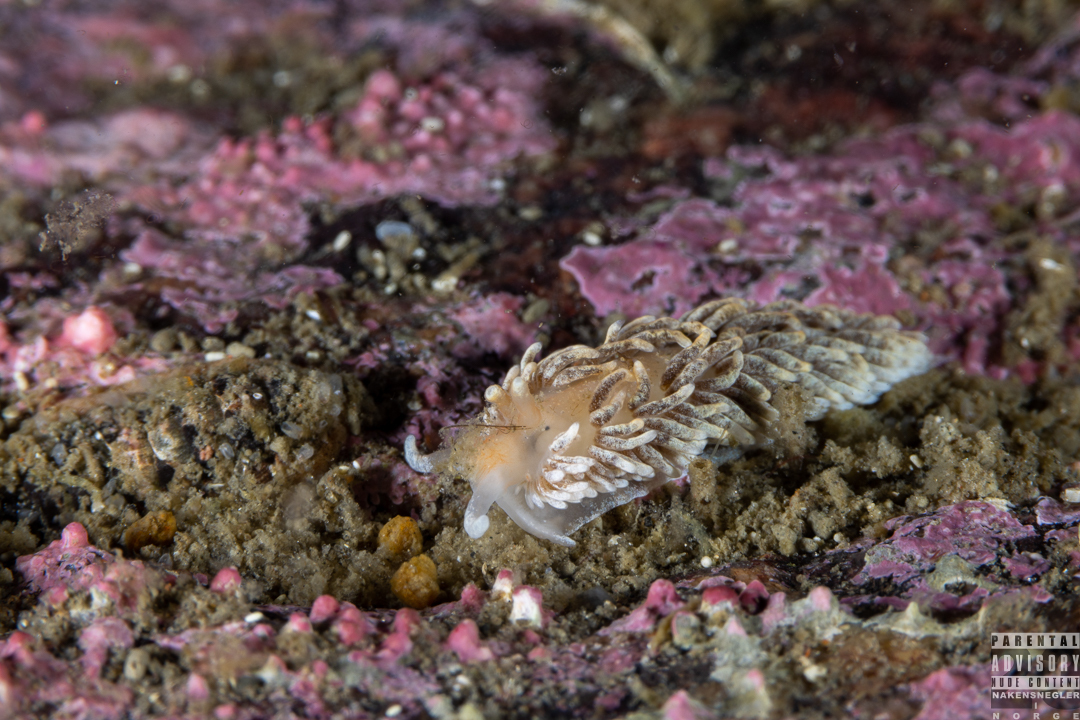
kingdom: Animalia
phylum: Mollusca
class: Gastropoda
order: Nudibranchia
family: Aeolidiidae
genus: Aeolidiella
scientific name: Aeolidiella glauca
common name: Orange-brown aeolid
